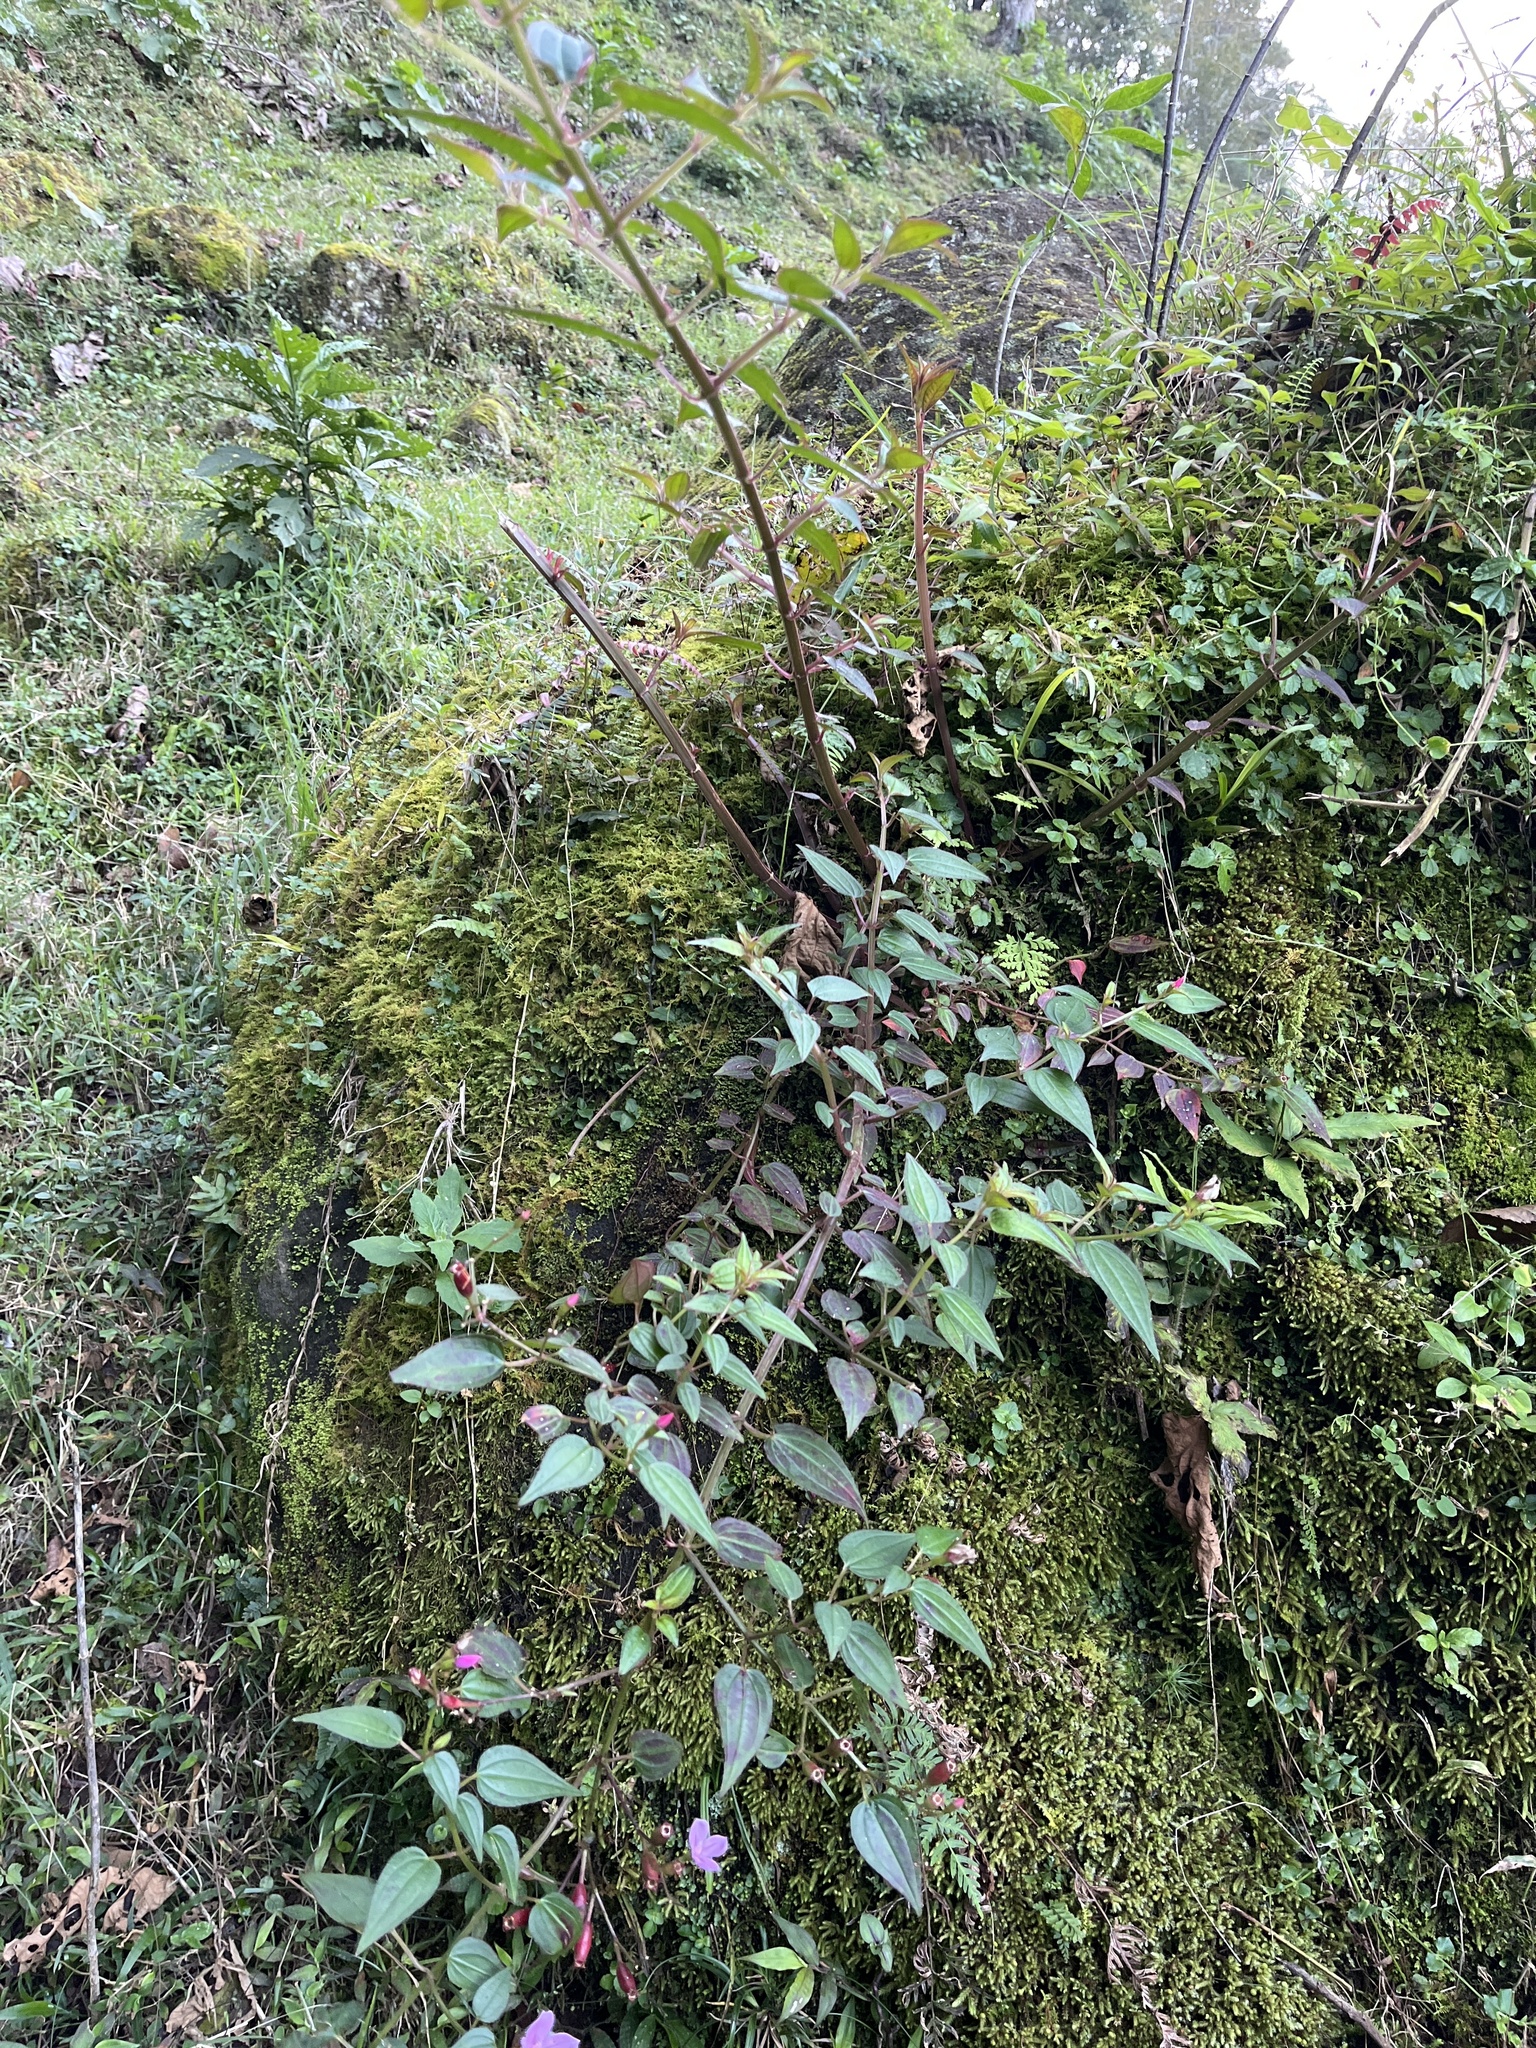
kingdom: Plantae
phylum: Tracheophyta
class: Magnoliopsida
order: Myrtales
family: Melastomataceae
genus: Arthrostemma
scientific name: Arthrostemma ciliatum
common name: Everblooming eavender
